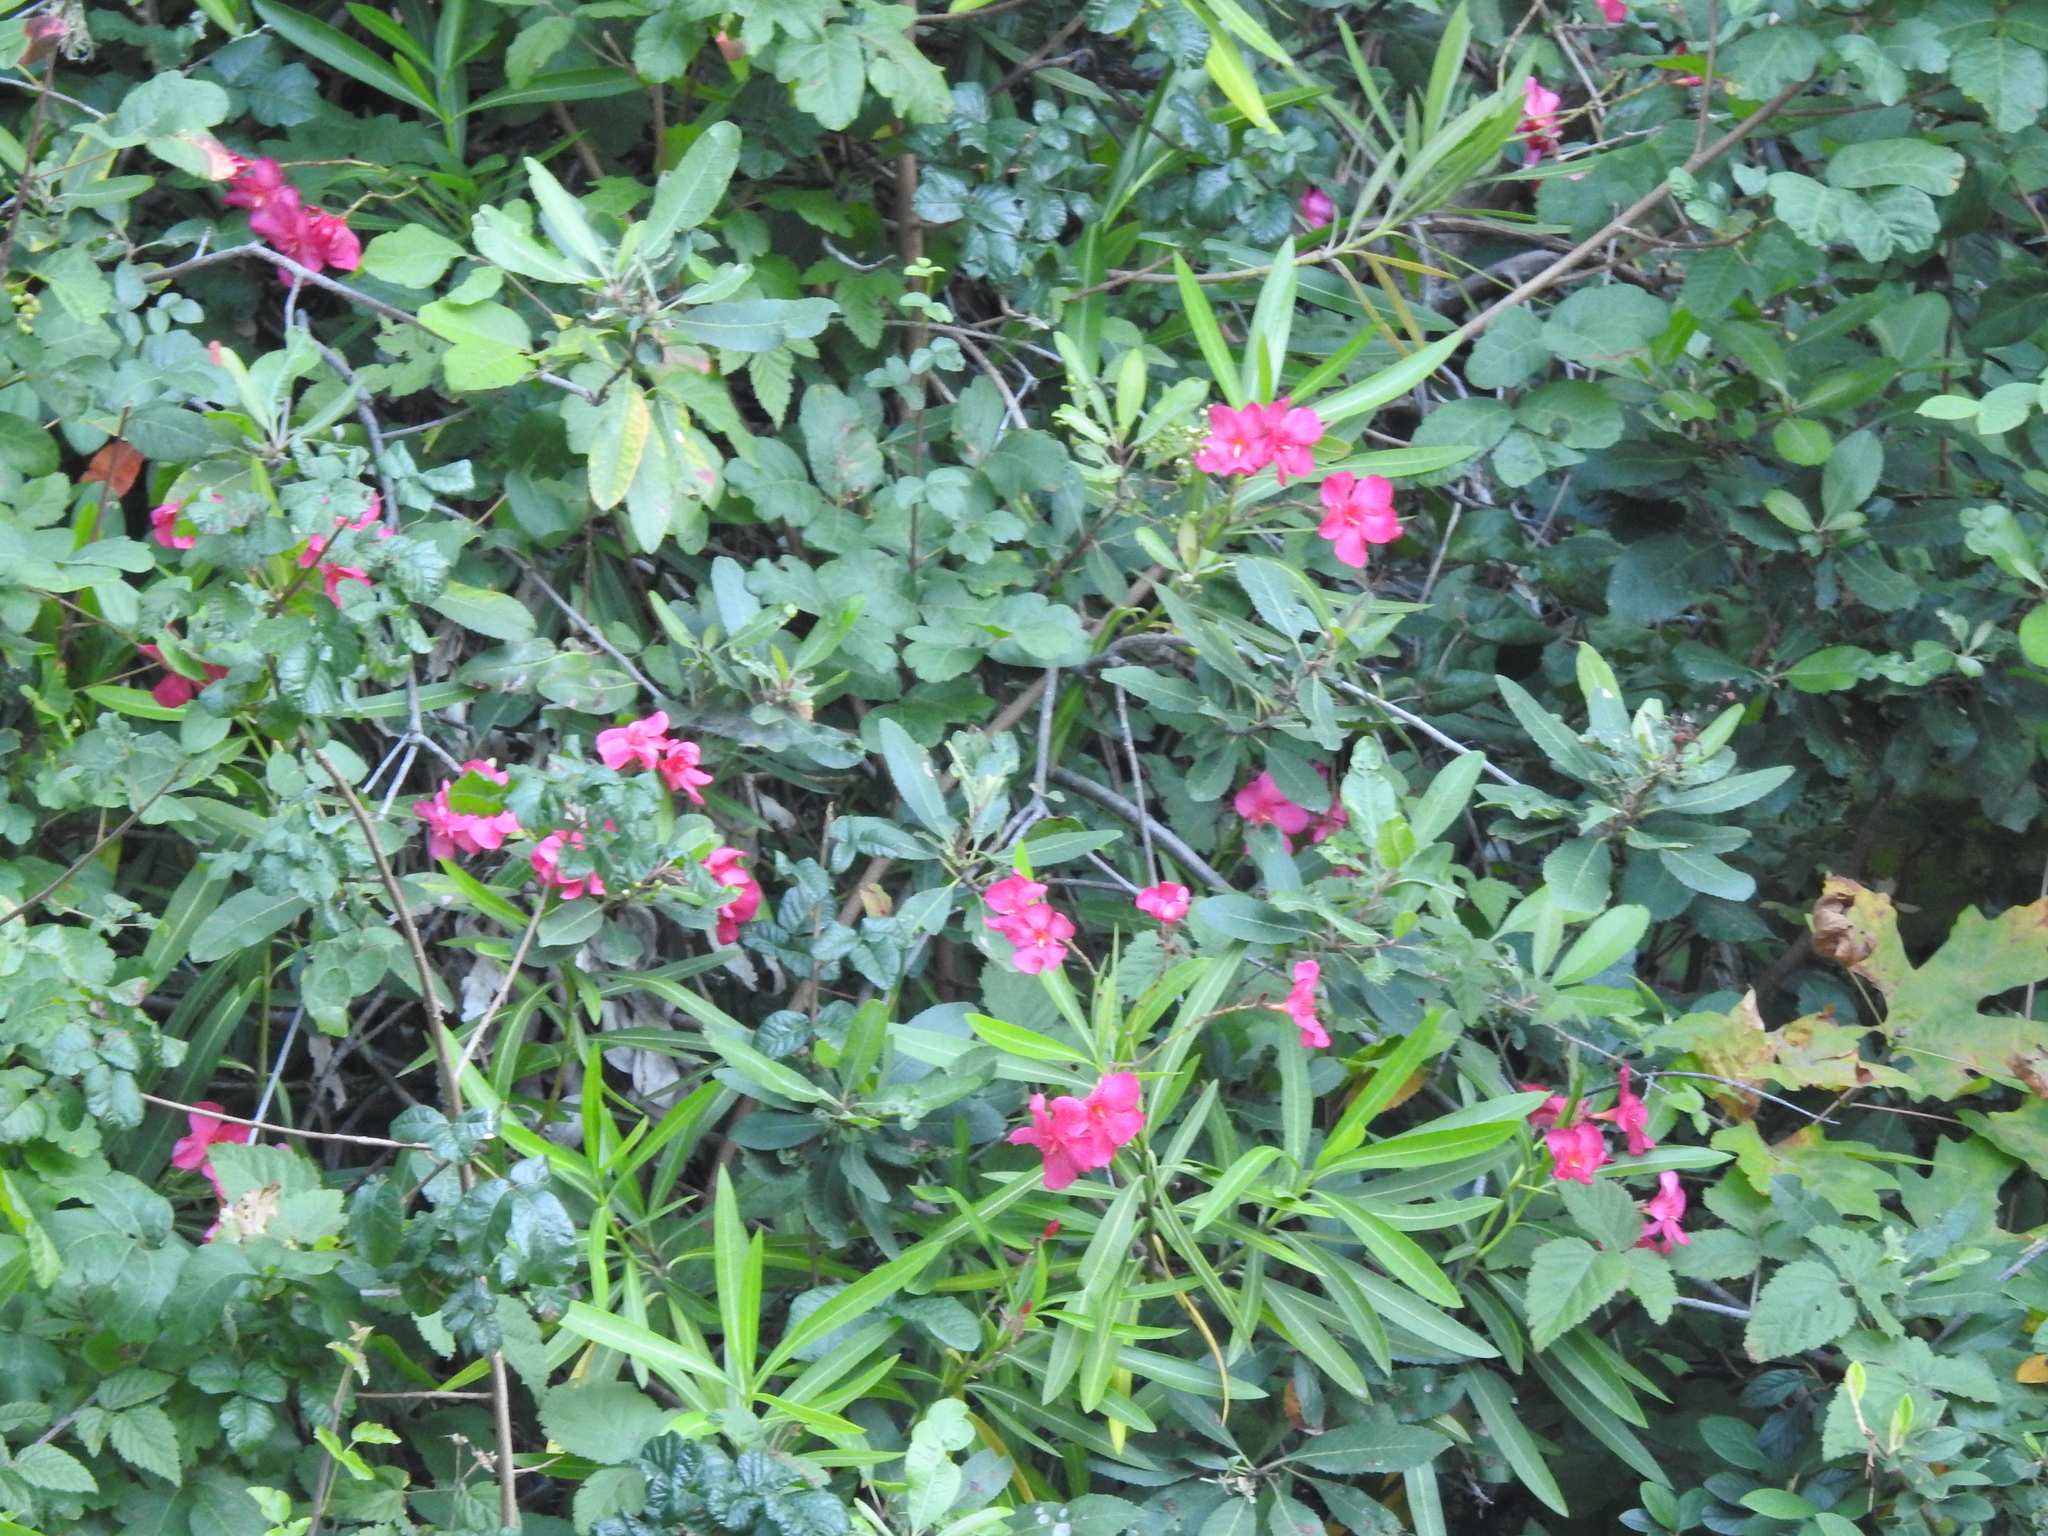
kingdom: Plantae
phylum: Tracheophyta
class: Magnoliopsida
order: Gentianales
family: Apocynaceae
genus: Nerium
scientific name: Nerium oleander
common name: Oleander
